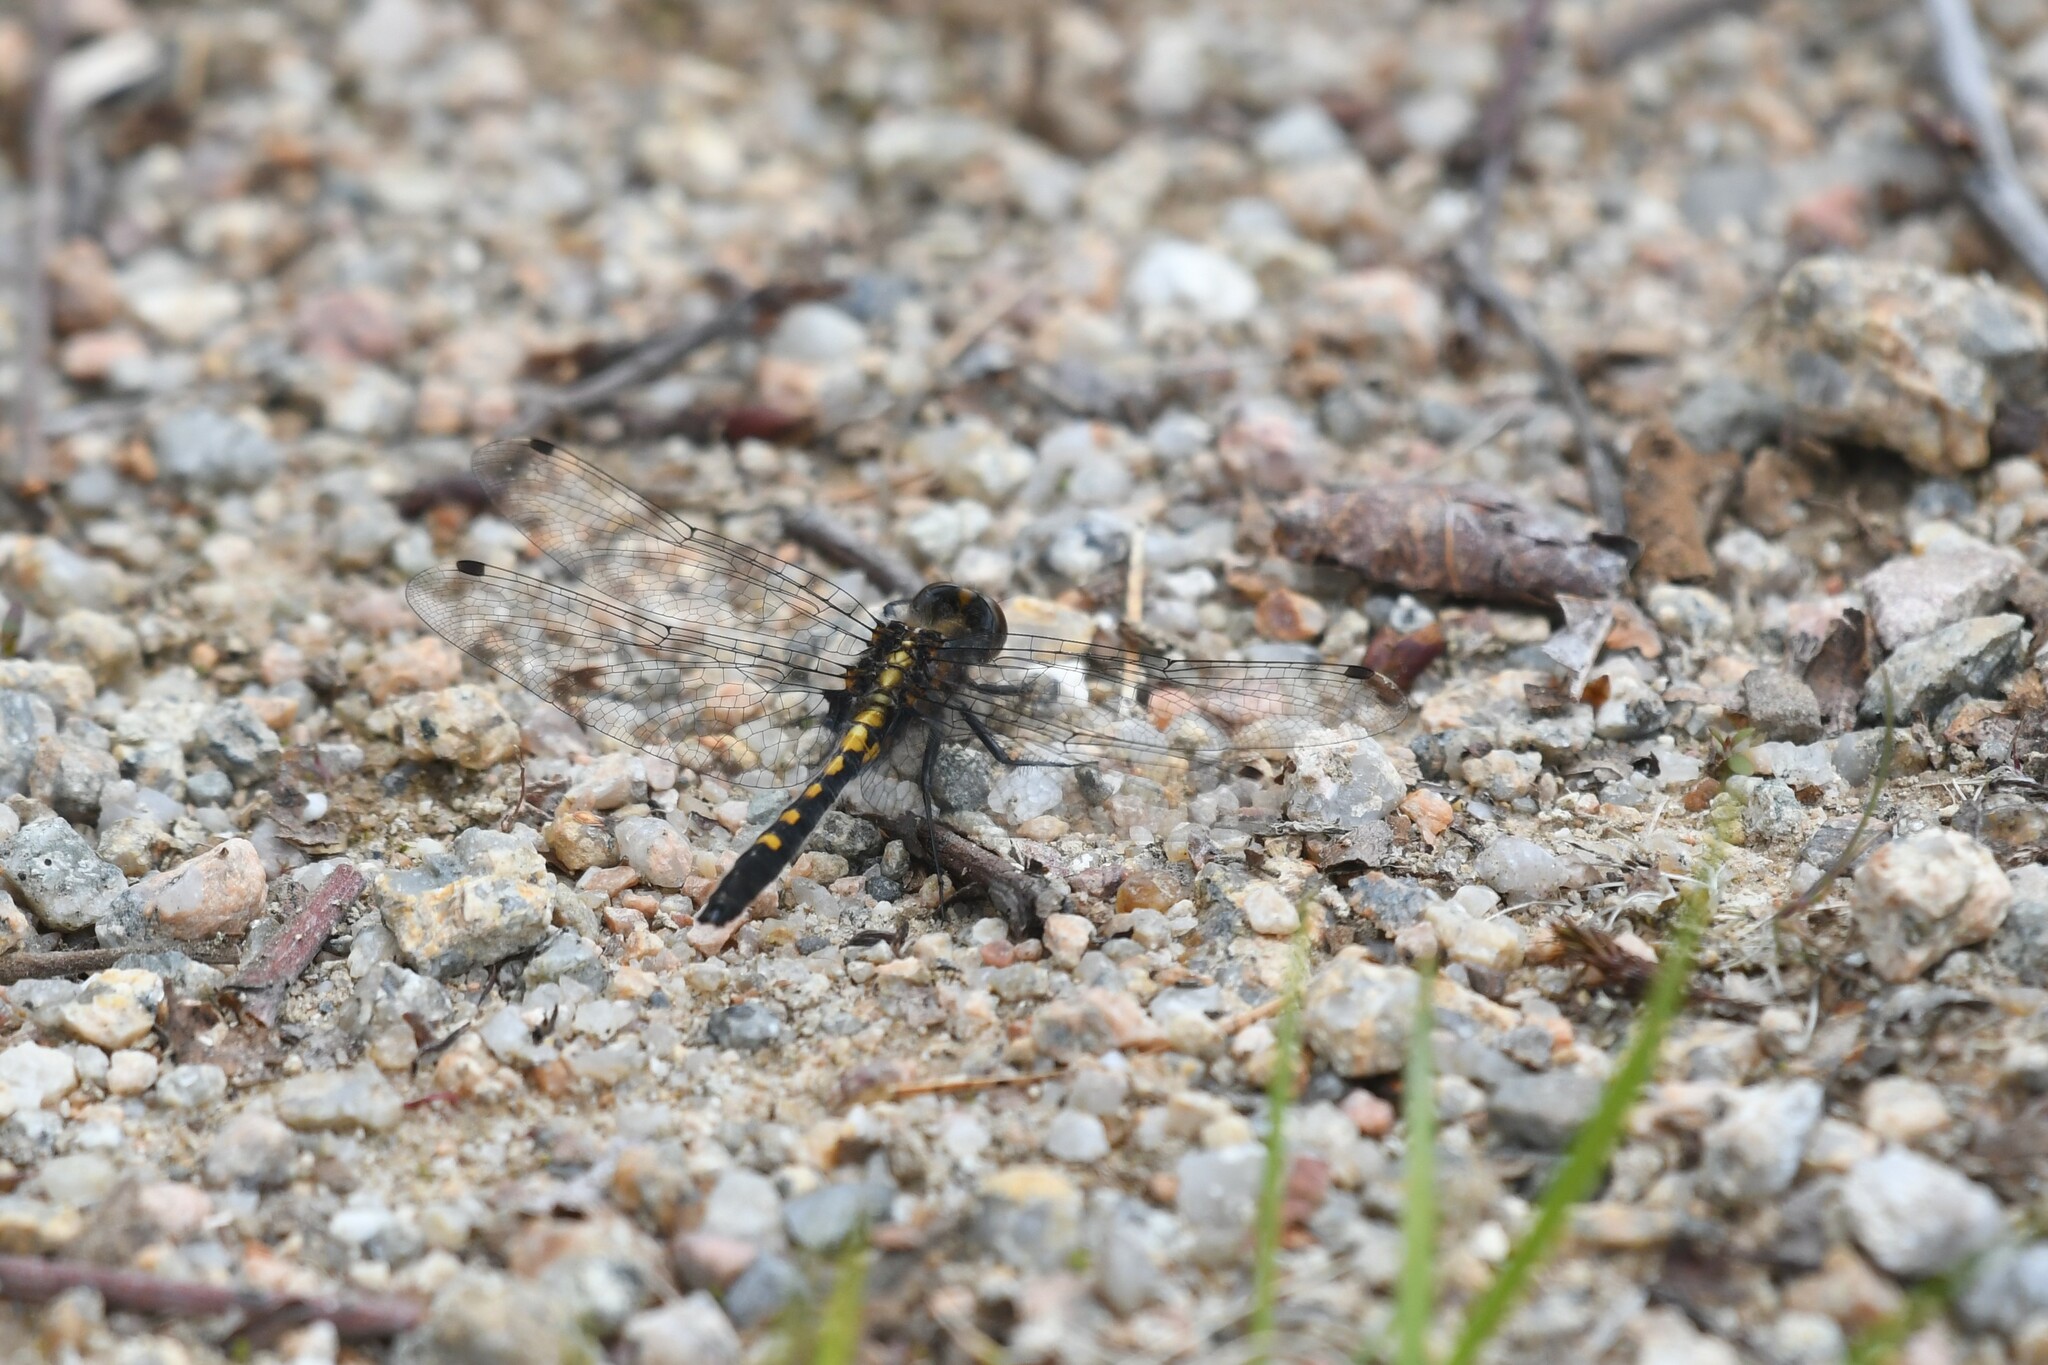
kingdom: Animalia
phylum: Arthropoda
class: Insecta
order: Odonata
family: Libellulidae
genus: Leucorrhinia
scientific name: Leucorrhinia intacta
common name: Dot-tailed whiteface
